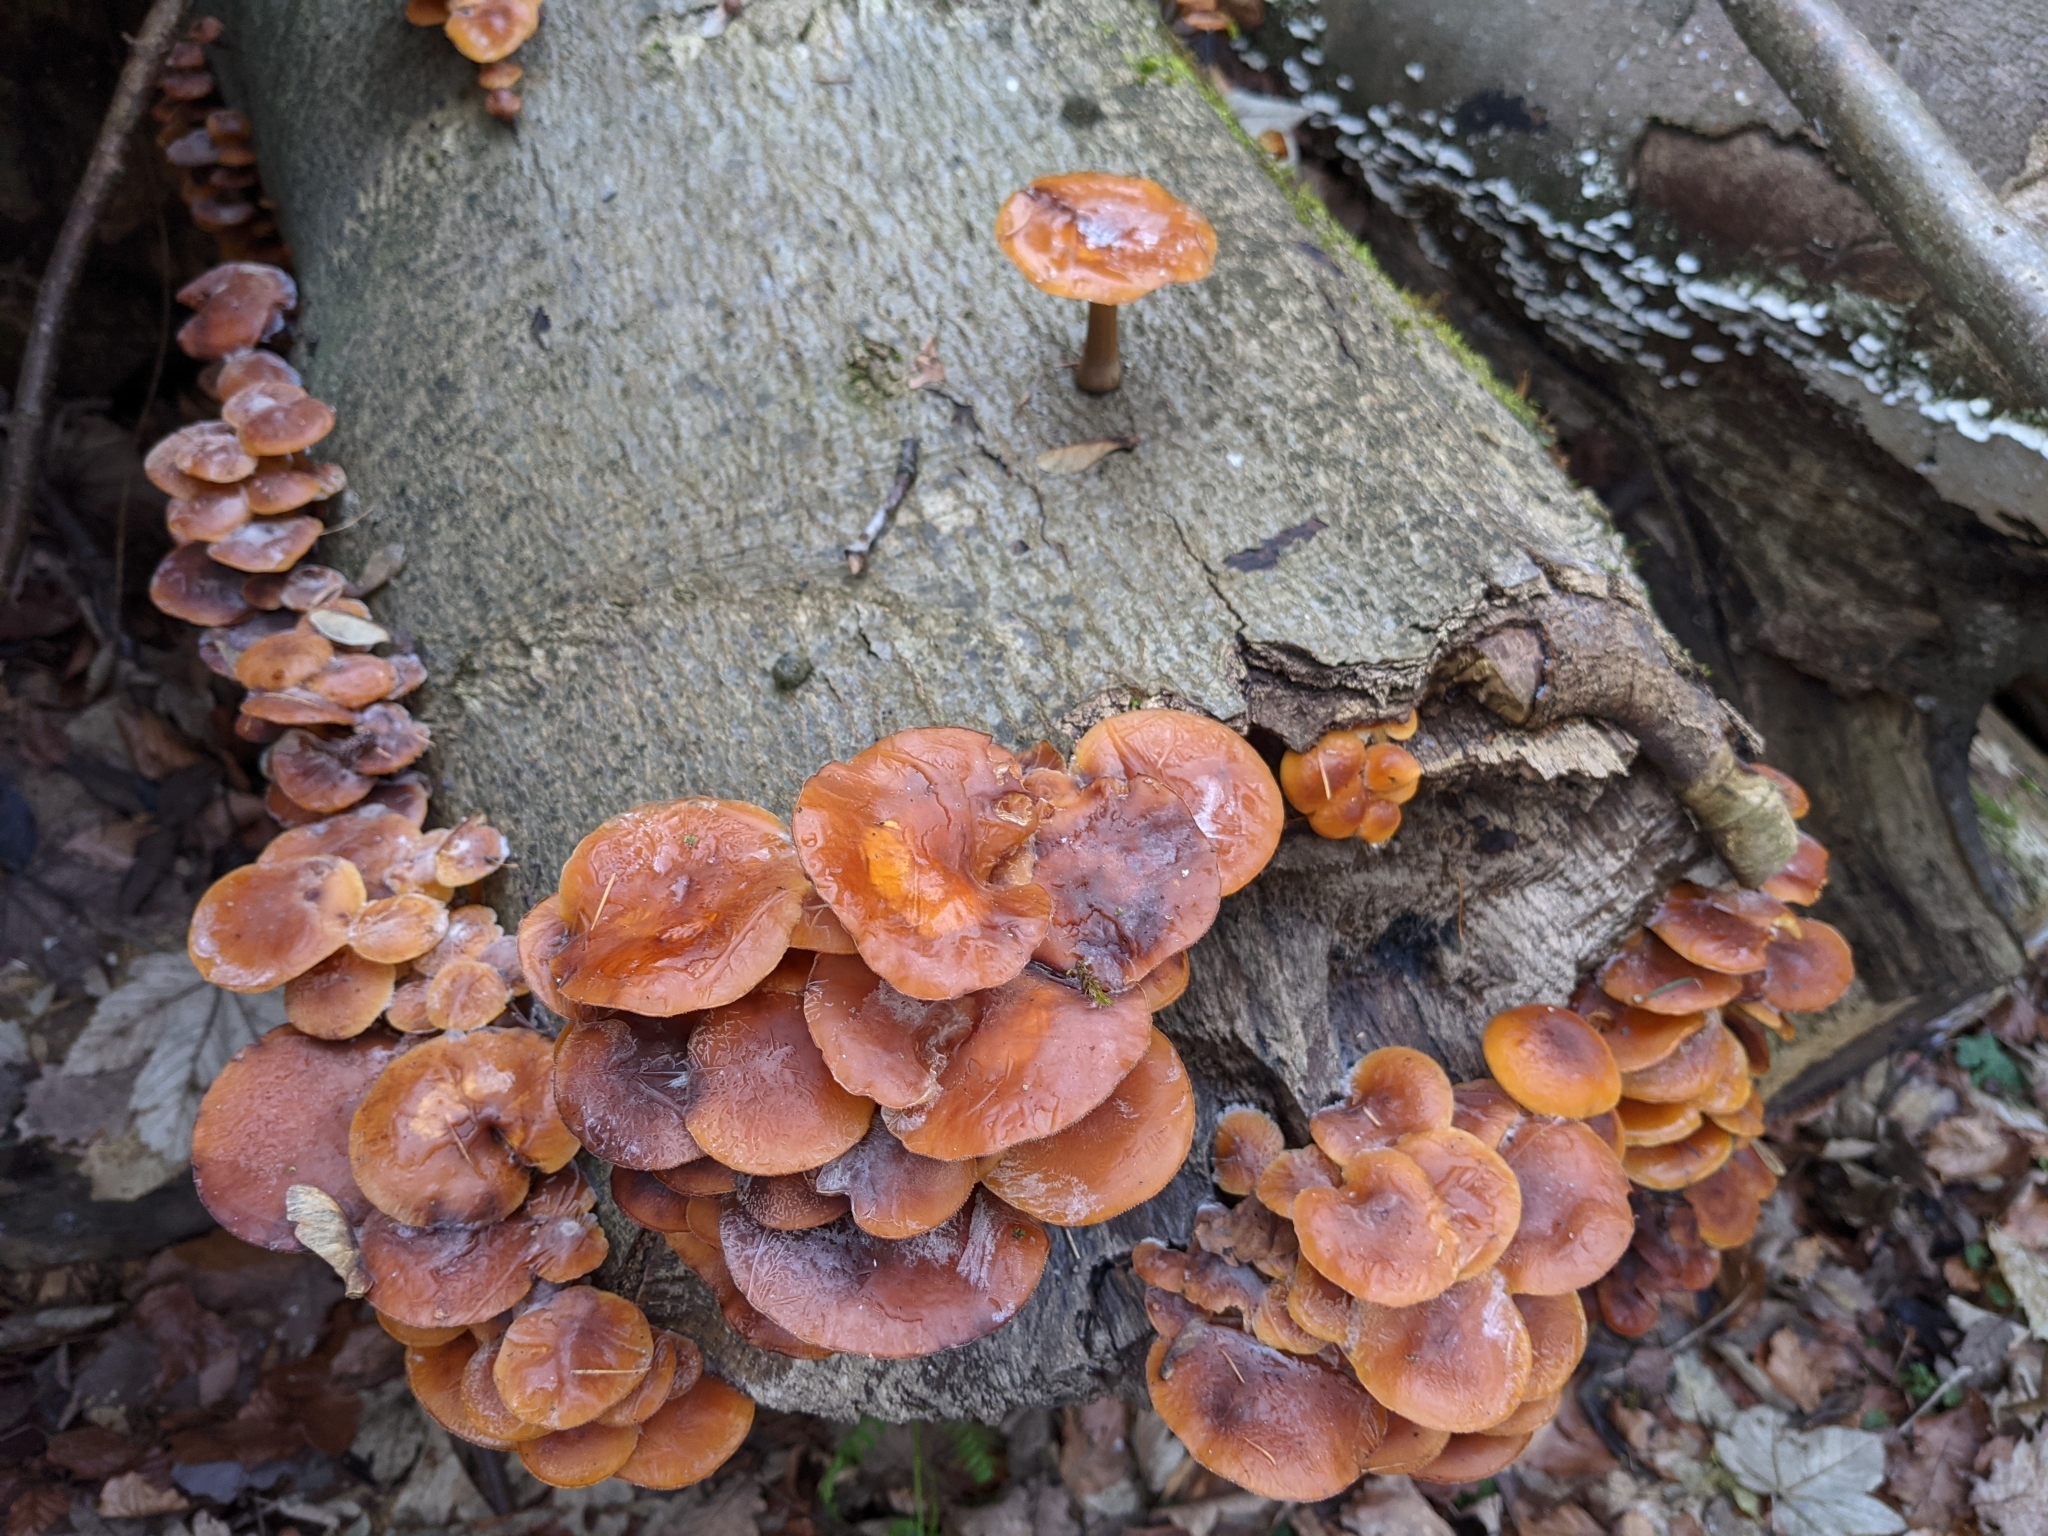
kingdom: Fungi
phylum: Basidiomycota
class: Agaricomycetes
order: Agaricales
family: Physalacriaceae
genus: Flammulina
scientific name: Flammulina
